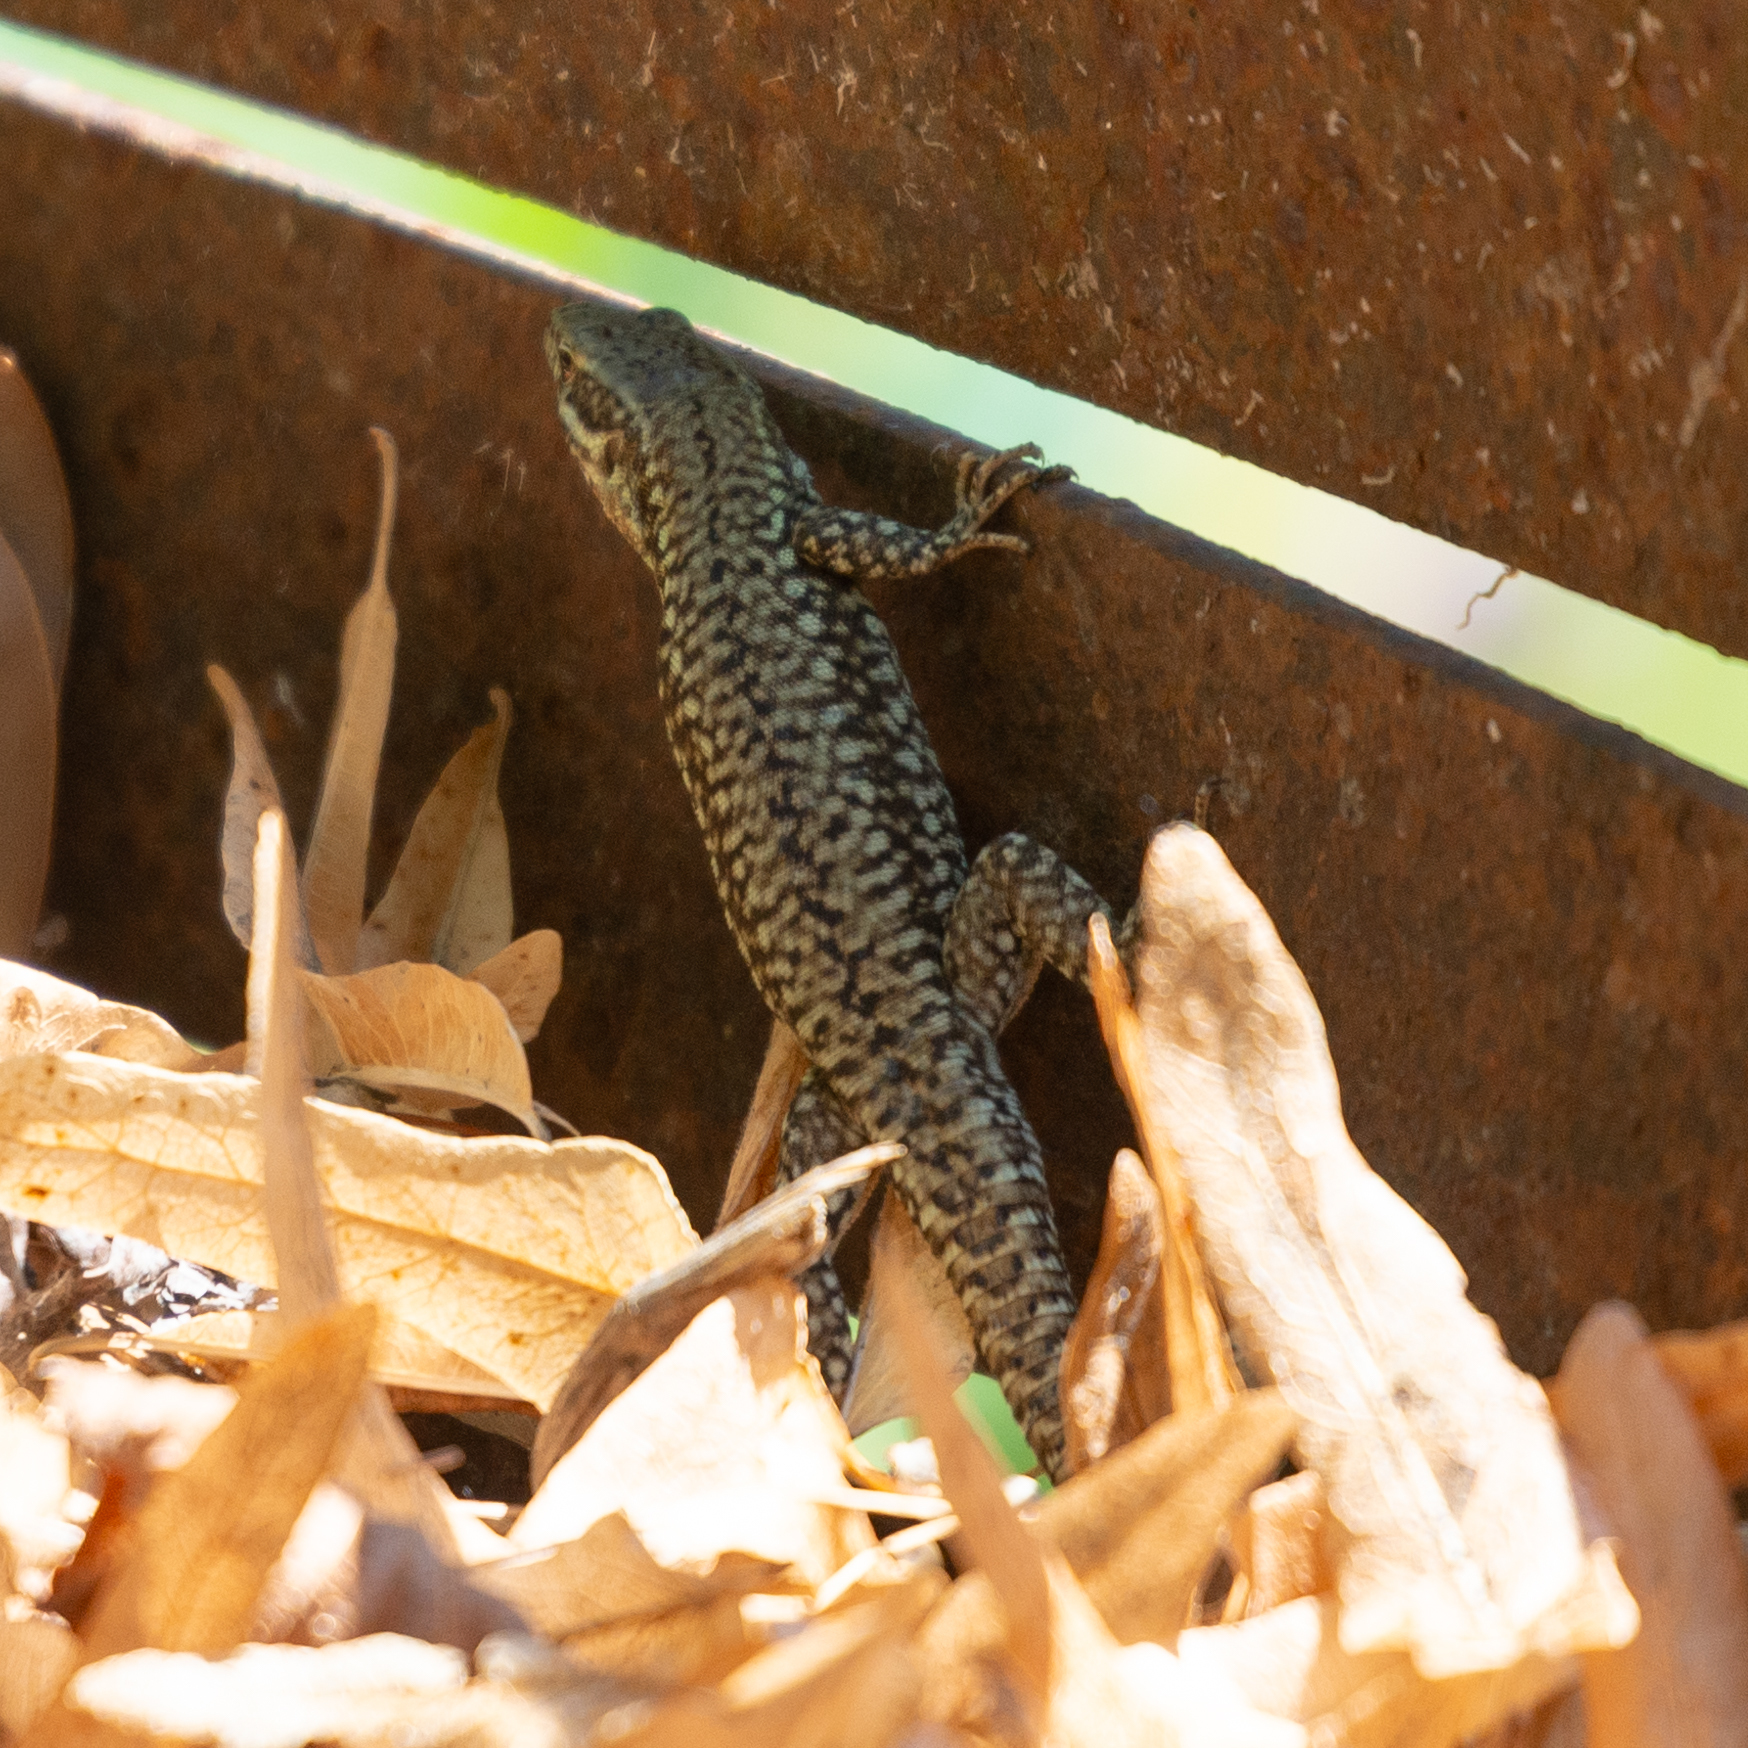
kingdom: Animalia
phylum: Chordata
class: Squamata
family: Lacertidae
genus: Podarcis
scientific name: Podarcis muralis
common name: Common wall lizard
